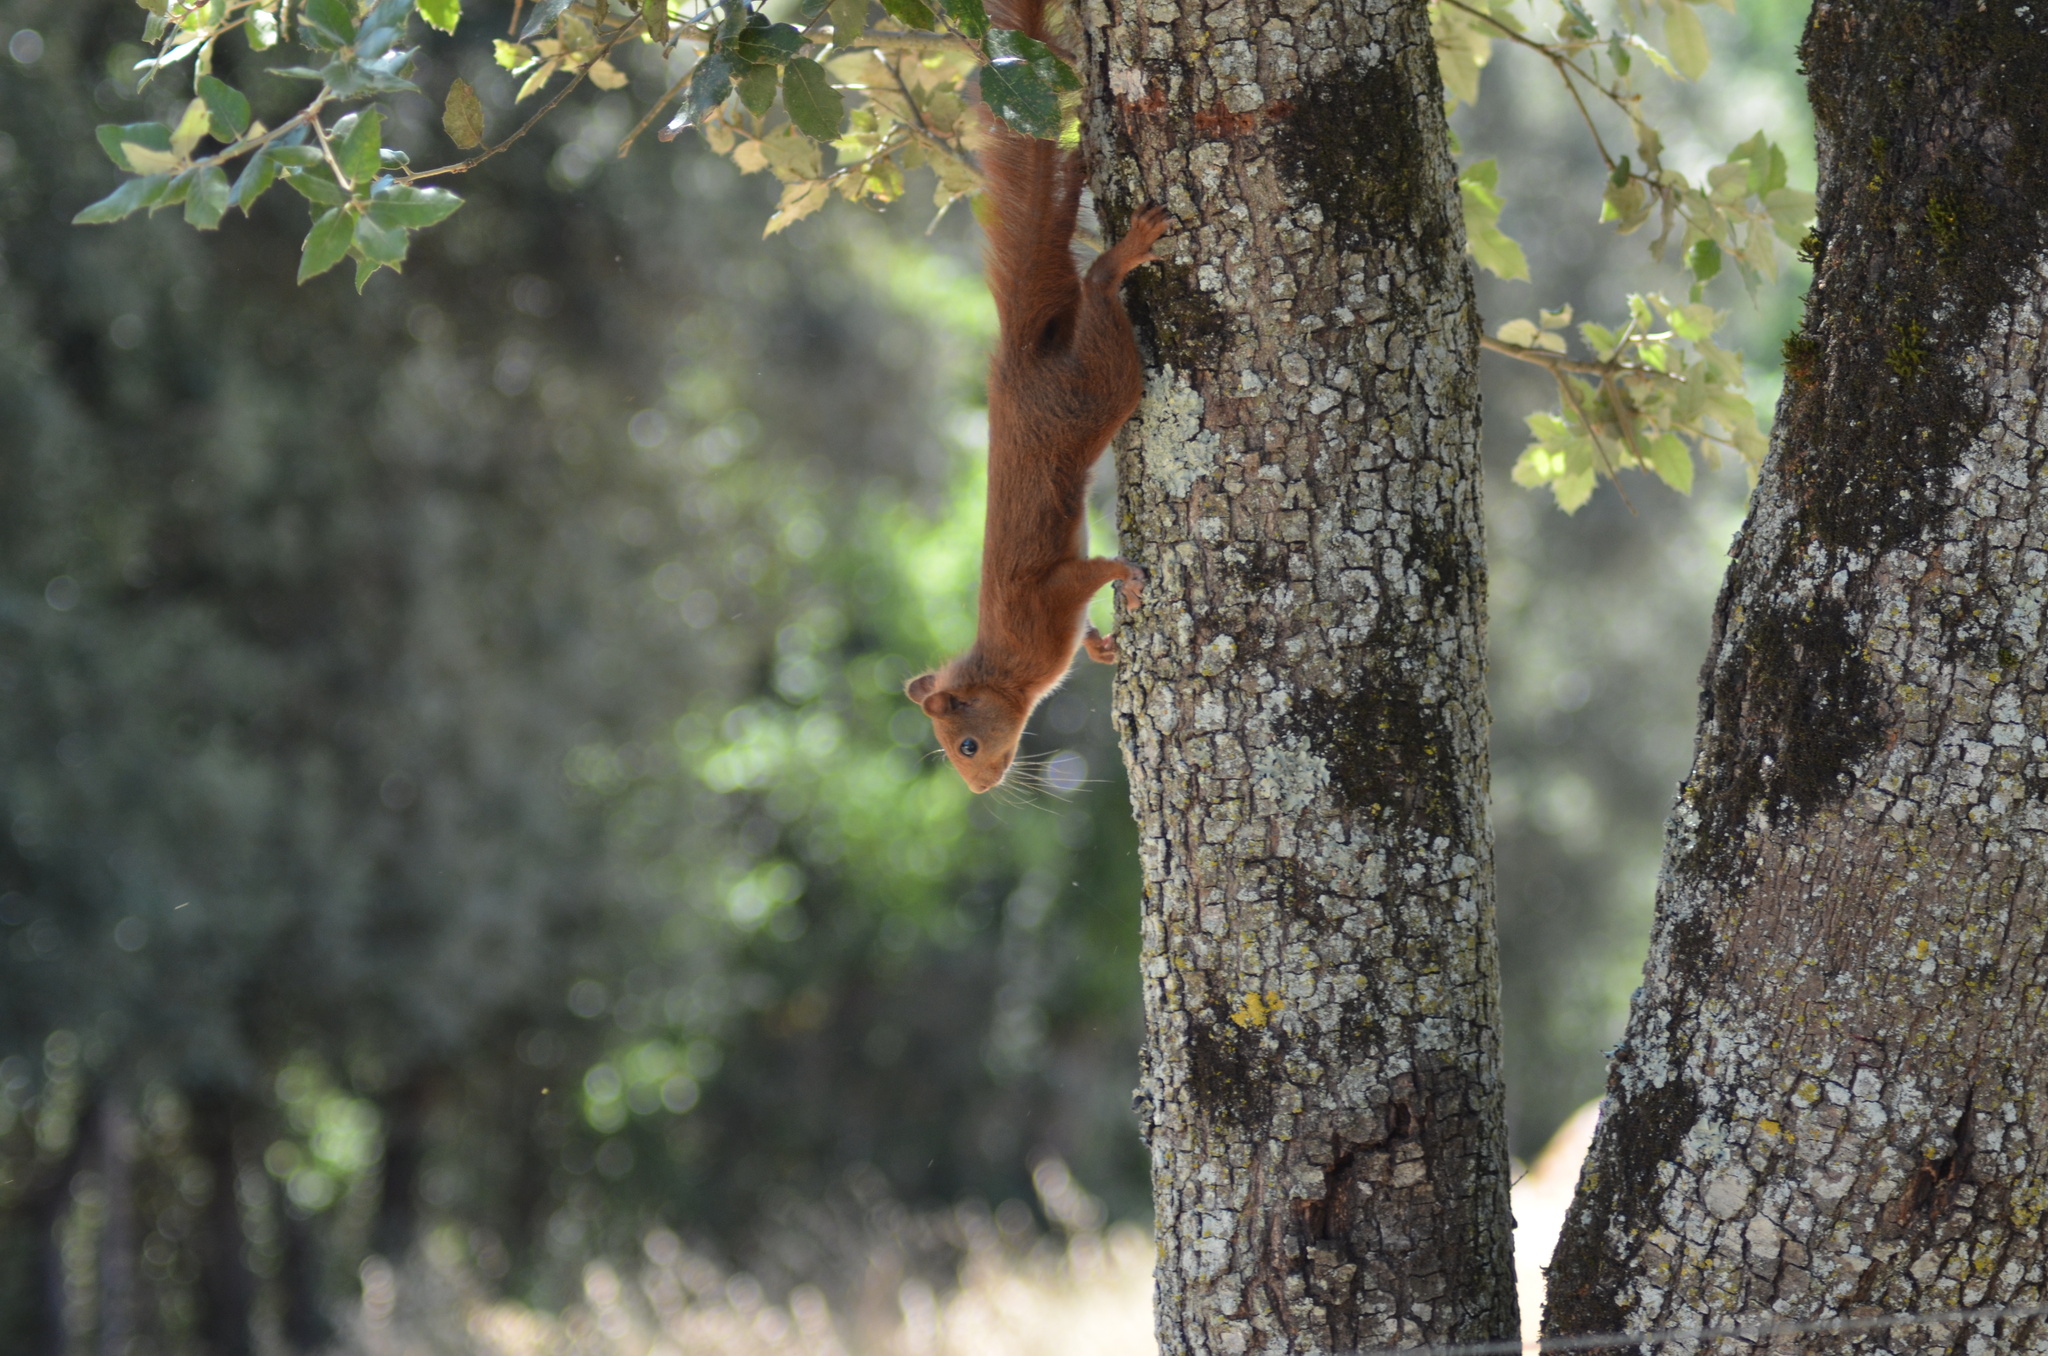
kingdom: Animalia
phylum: Chordata
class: Mammalia
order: Rodentia
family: Sciuridae
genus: Sciurus
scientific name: Sciurus vulgaris
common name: Eurasian red squirrel
